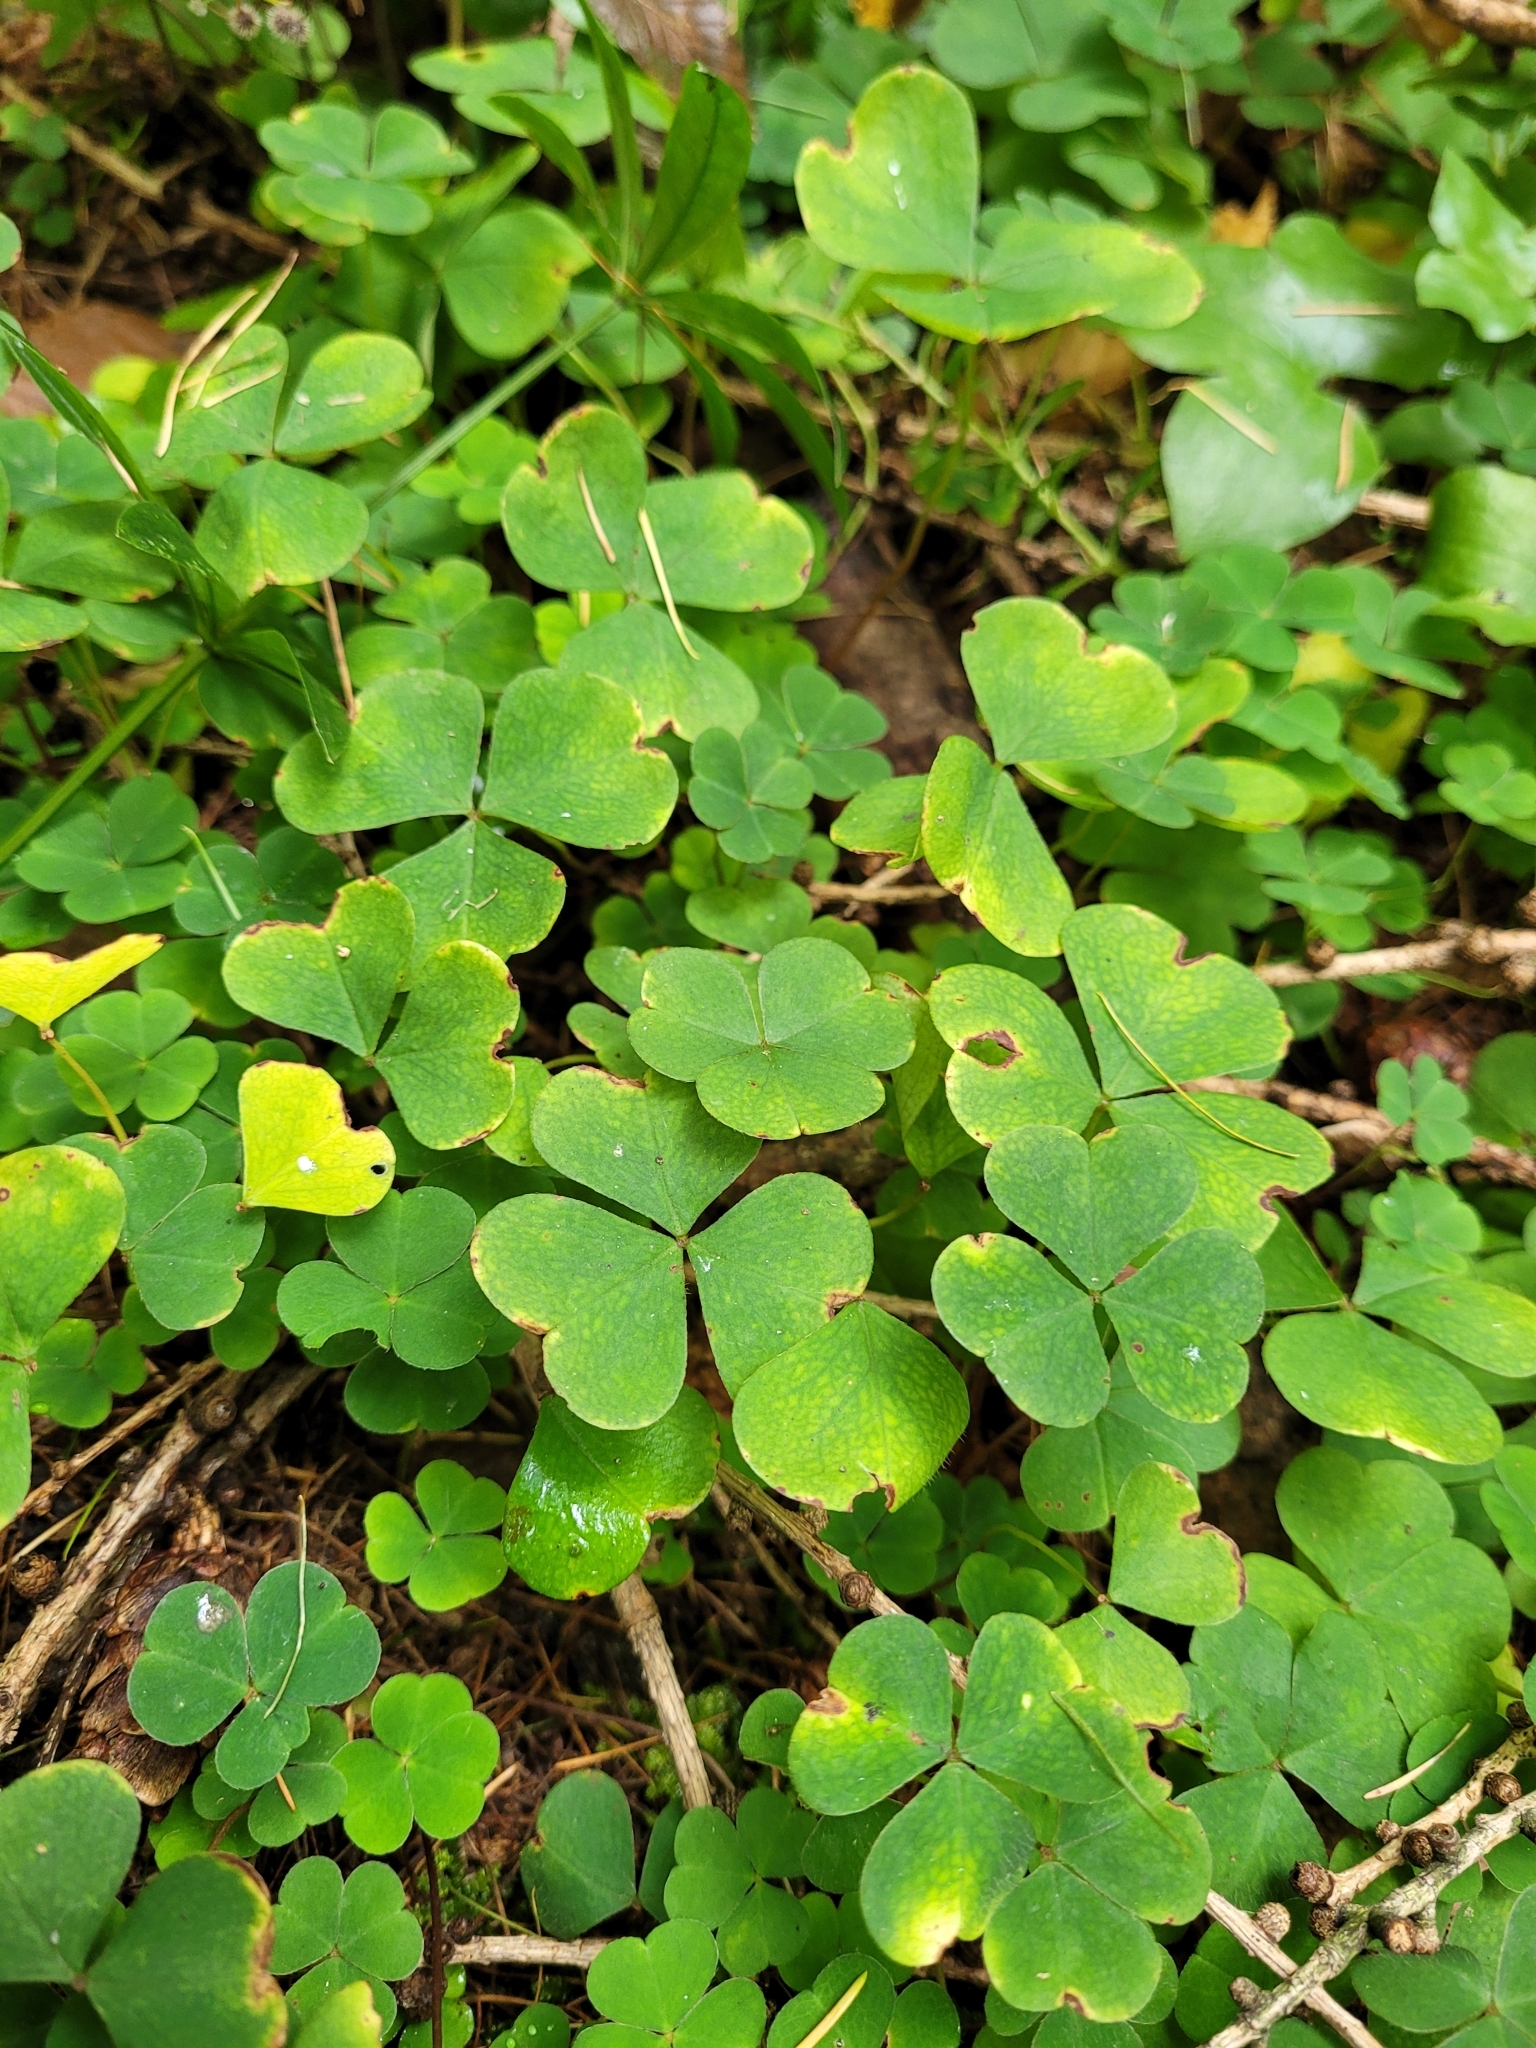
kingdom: Plantae
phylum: Tracheophyta
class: Magnoliopsida
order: Oxalidales
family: Oxalidaceae
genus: Oxalis
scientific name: Oxalis acetosella
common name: Wood-sorrel
